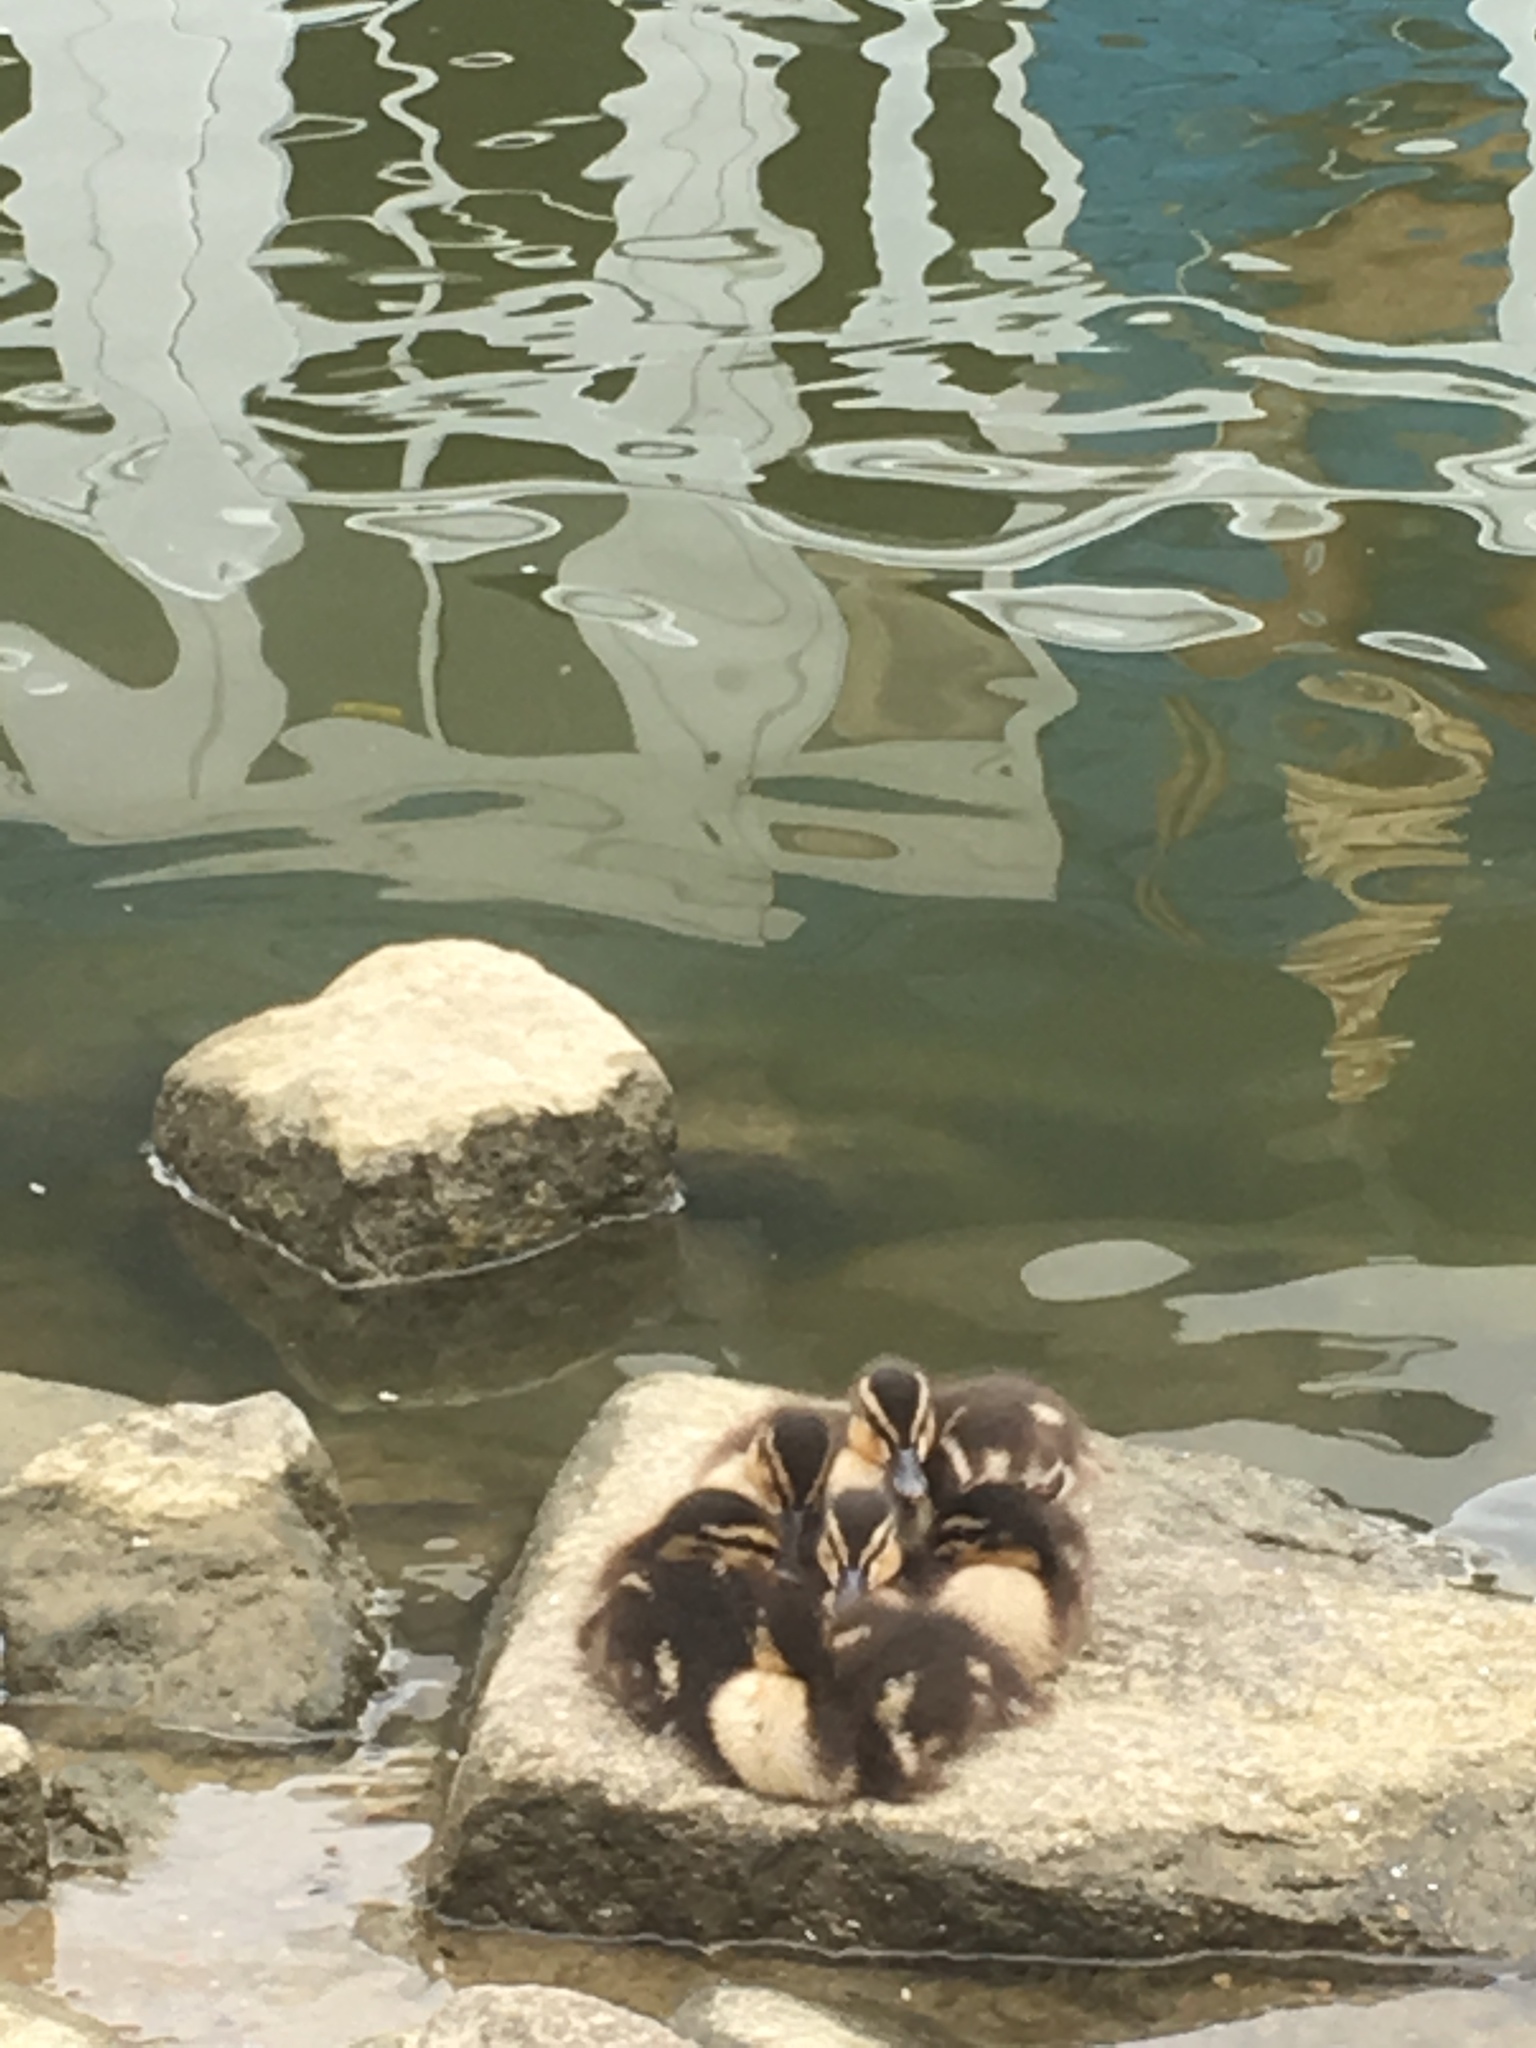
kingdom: Animalia
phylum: Chordata
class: Aves
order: Anseriformes
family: Anatidae
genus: Anas
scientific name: Anas platyrhynchos
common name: Mallard
